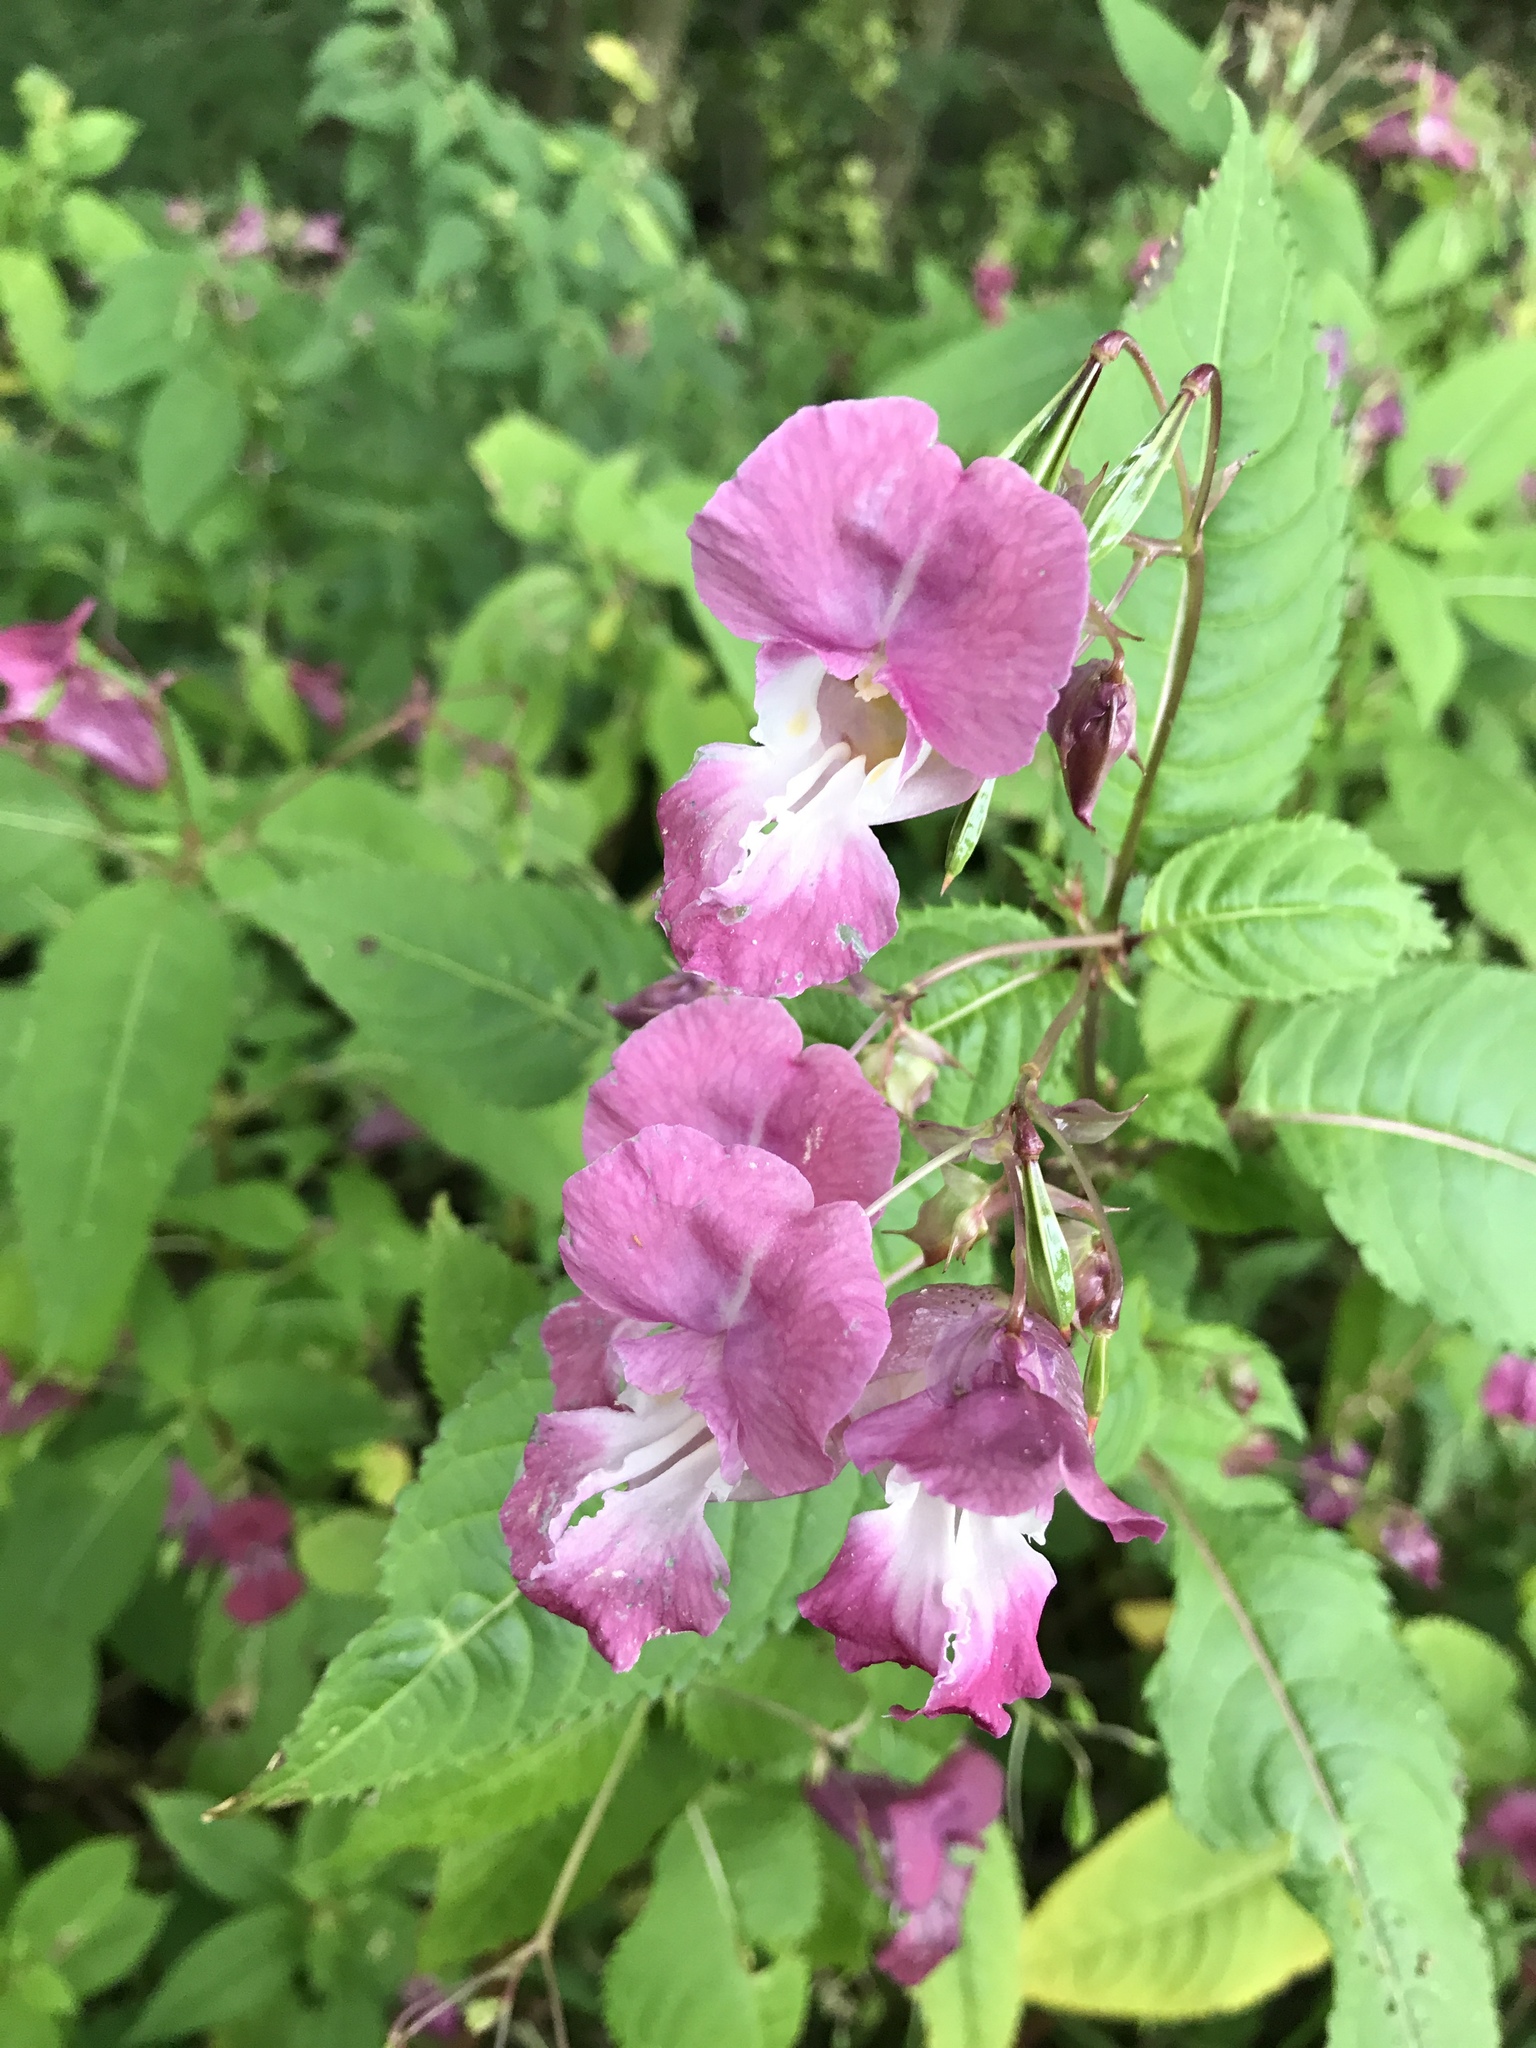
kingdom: Plantae
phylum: Tracheophyta
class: Magnoliopsida
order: Ericales
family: Balsaminaceae
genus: Impatiens
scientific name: Impatiens glandulifera
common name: Himalayan balsam
